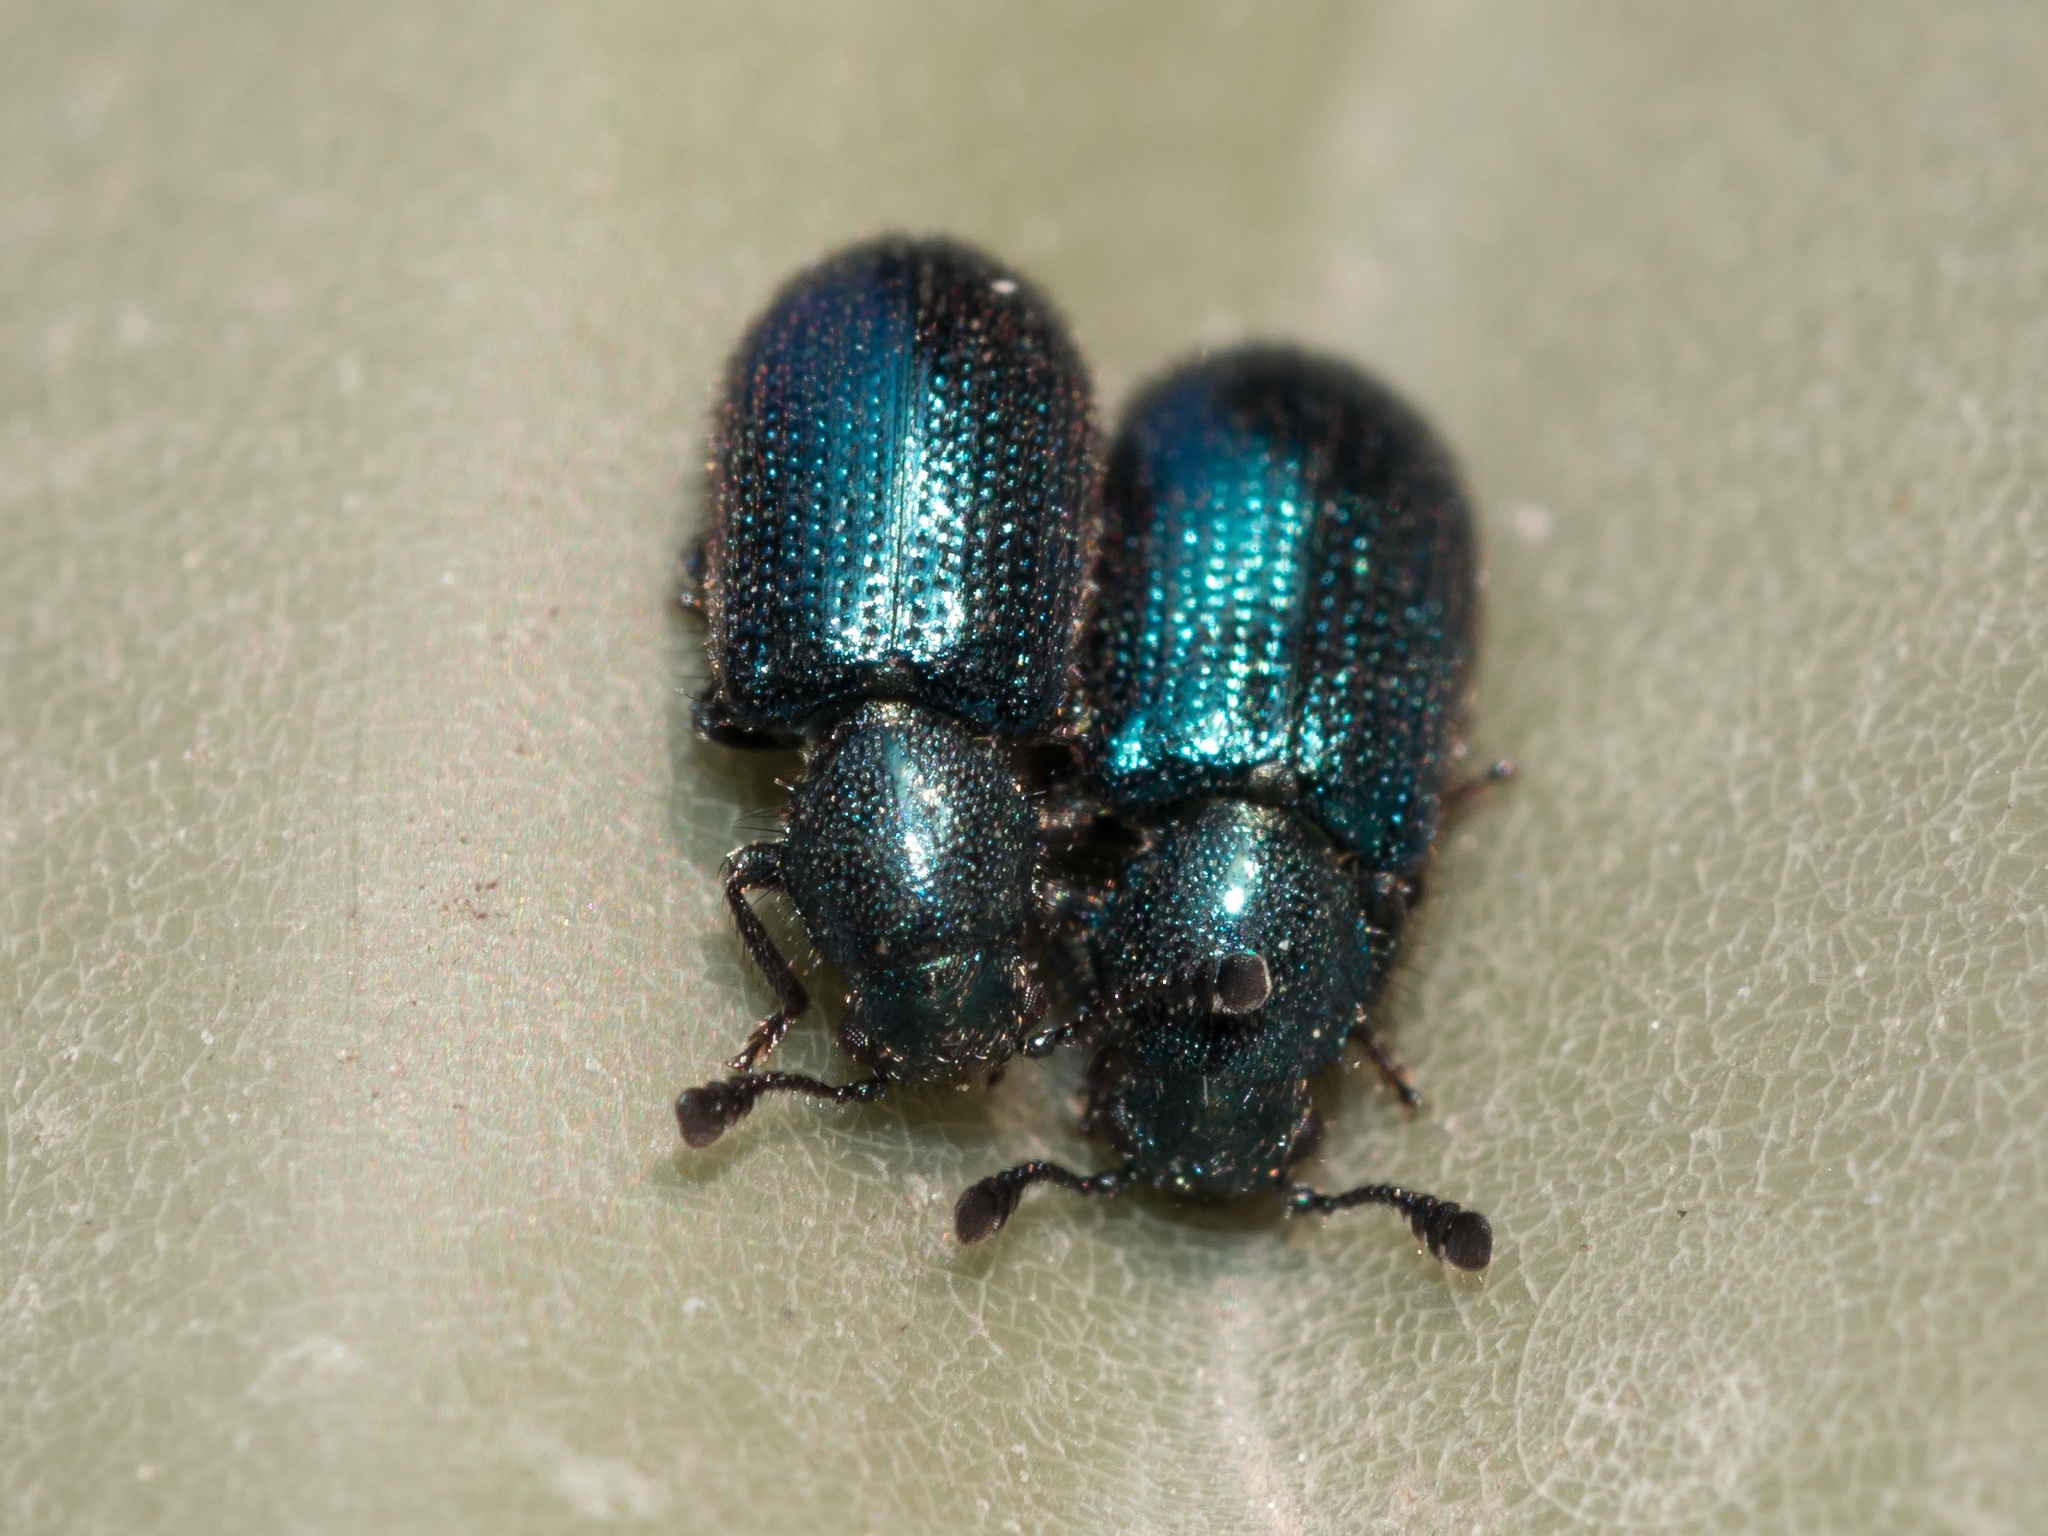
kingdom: Animalia
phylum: Arthropoda
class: Insecta
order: Coleoptera
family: Cleridae
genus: Necrobia
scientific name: Necrobia violacea
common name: Violet checkered beetle
